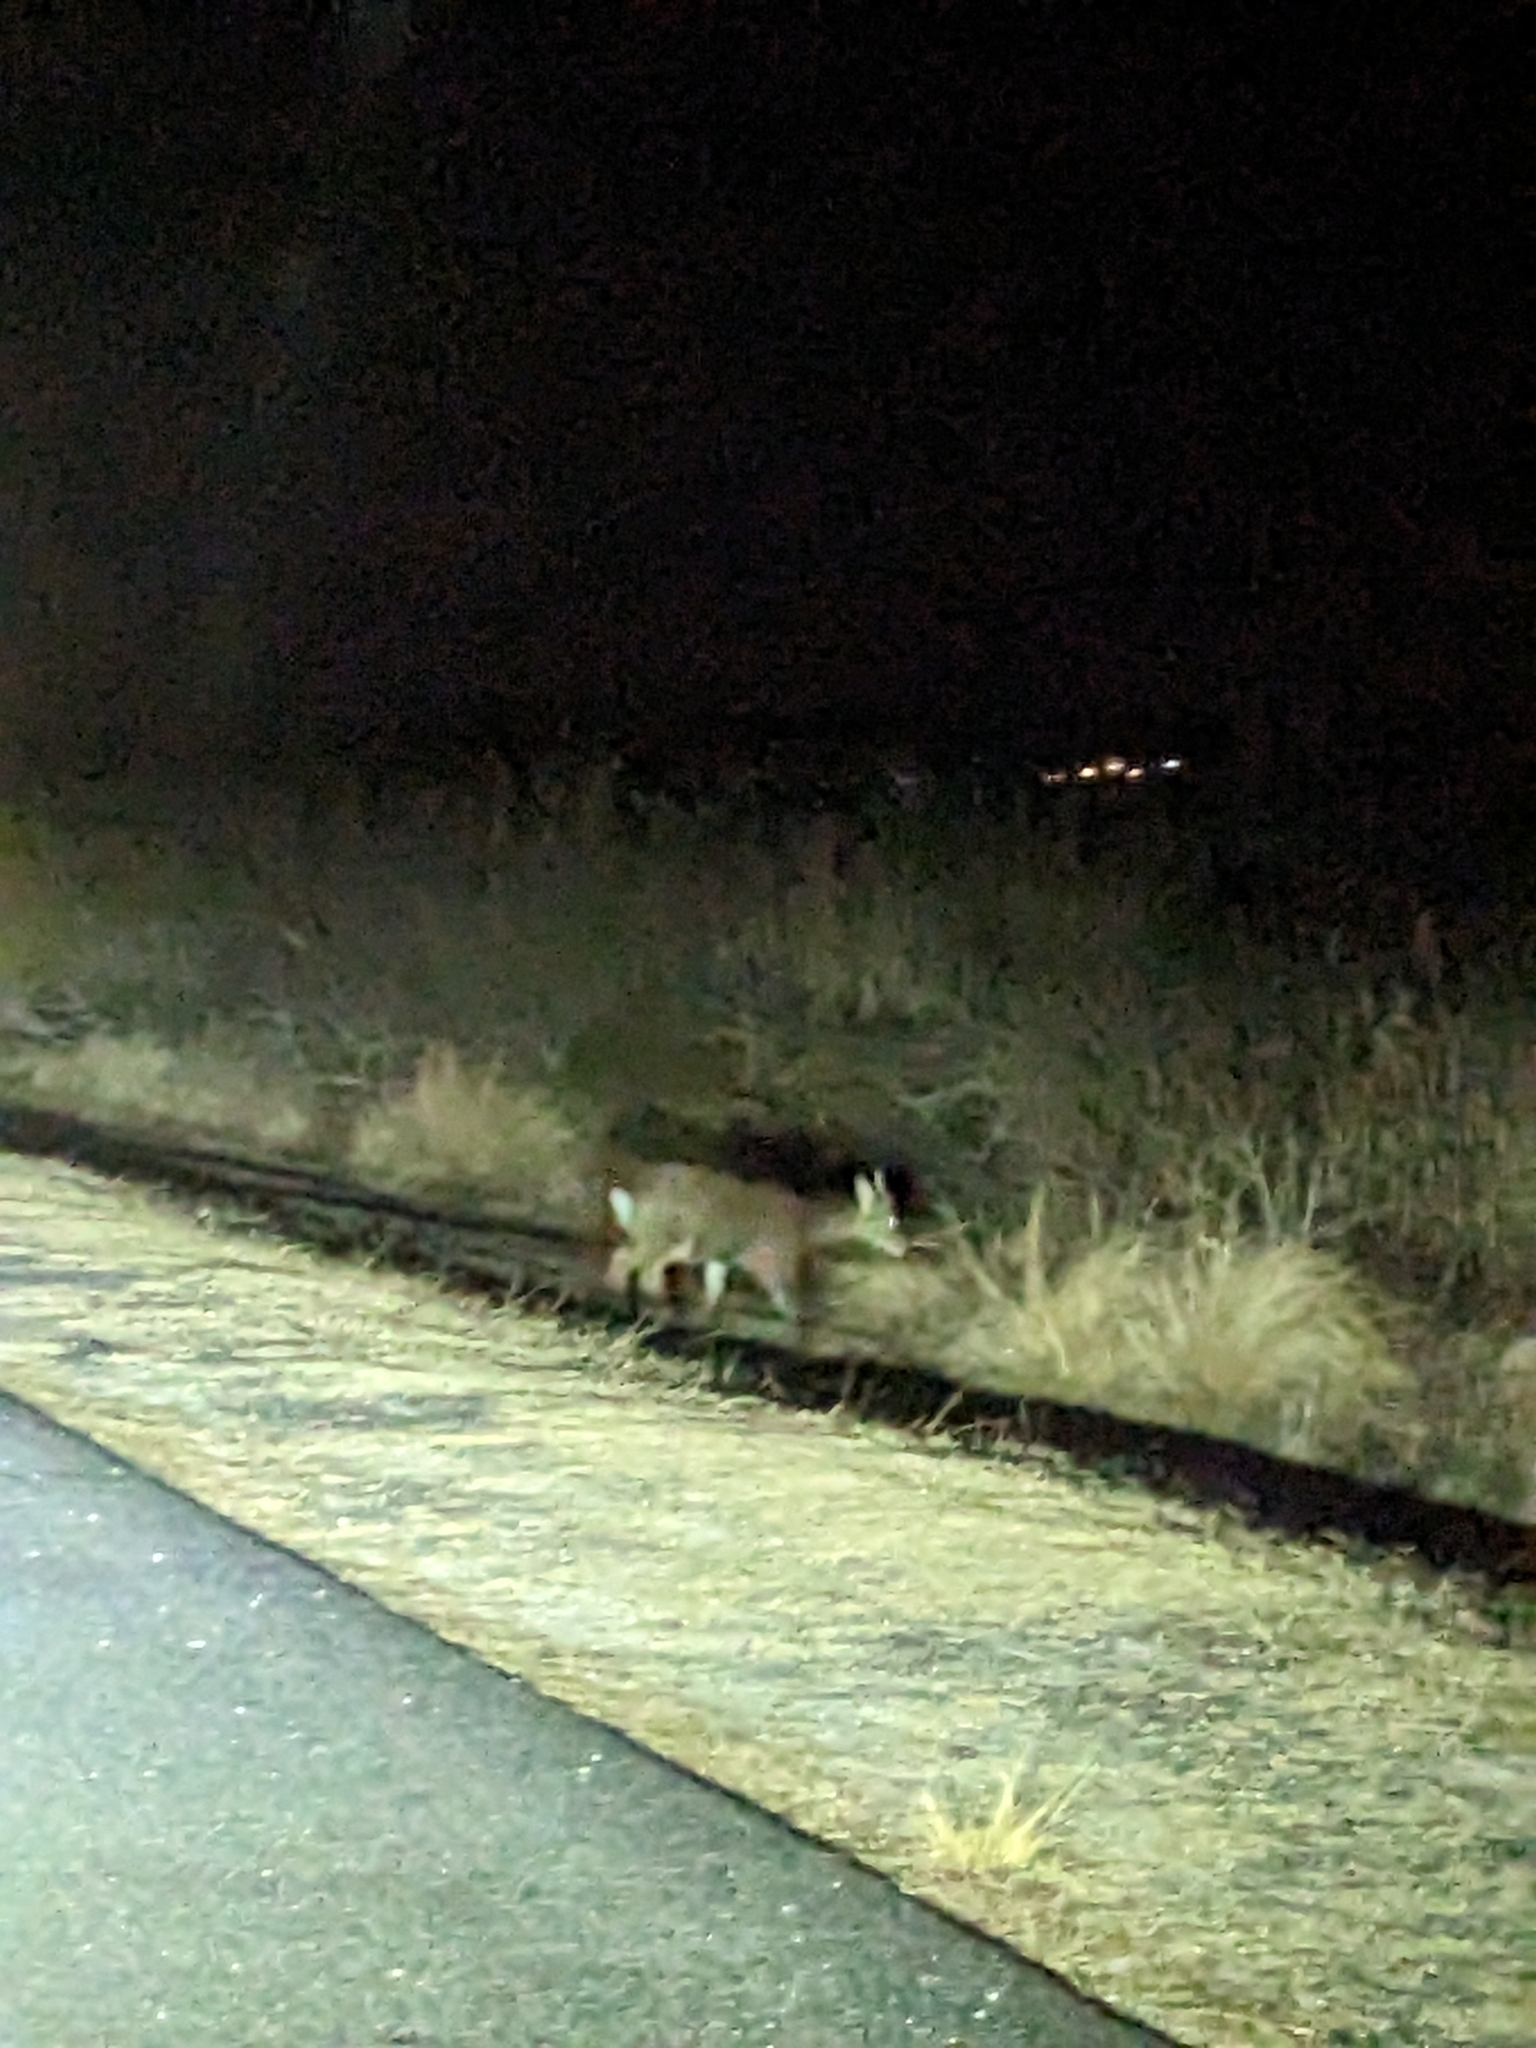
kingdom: Animalia
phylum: Chordata
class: Mammalia
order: Artiodactyla
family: Cervidae
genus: Cervus
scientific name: Cervus nippon
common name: Sika deer
